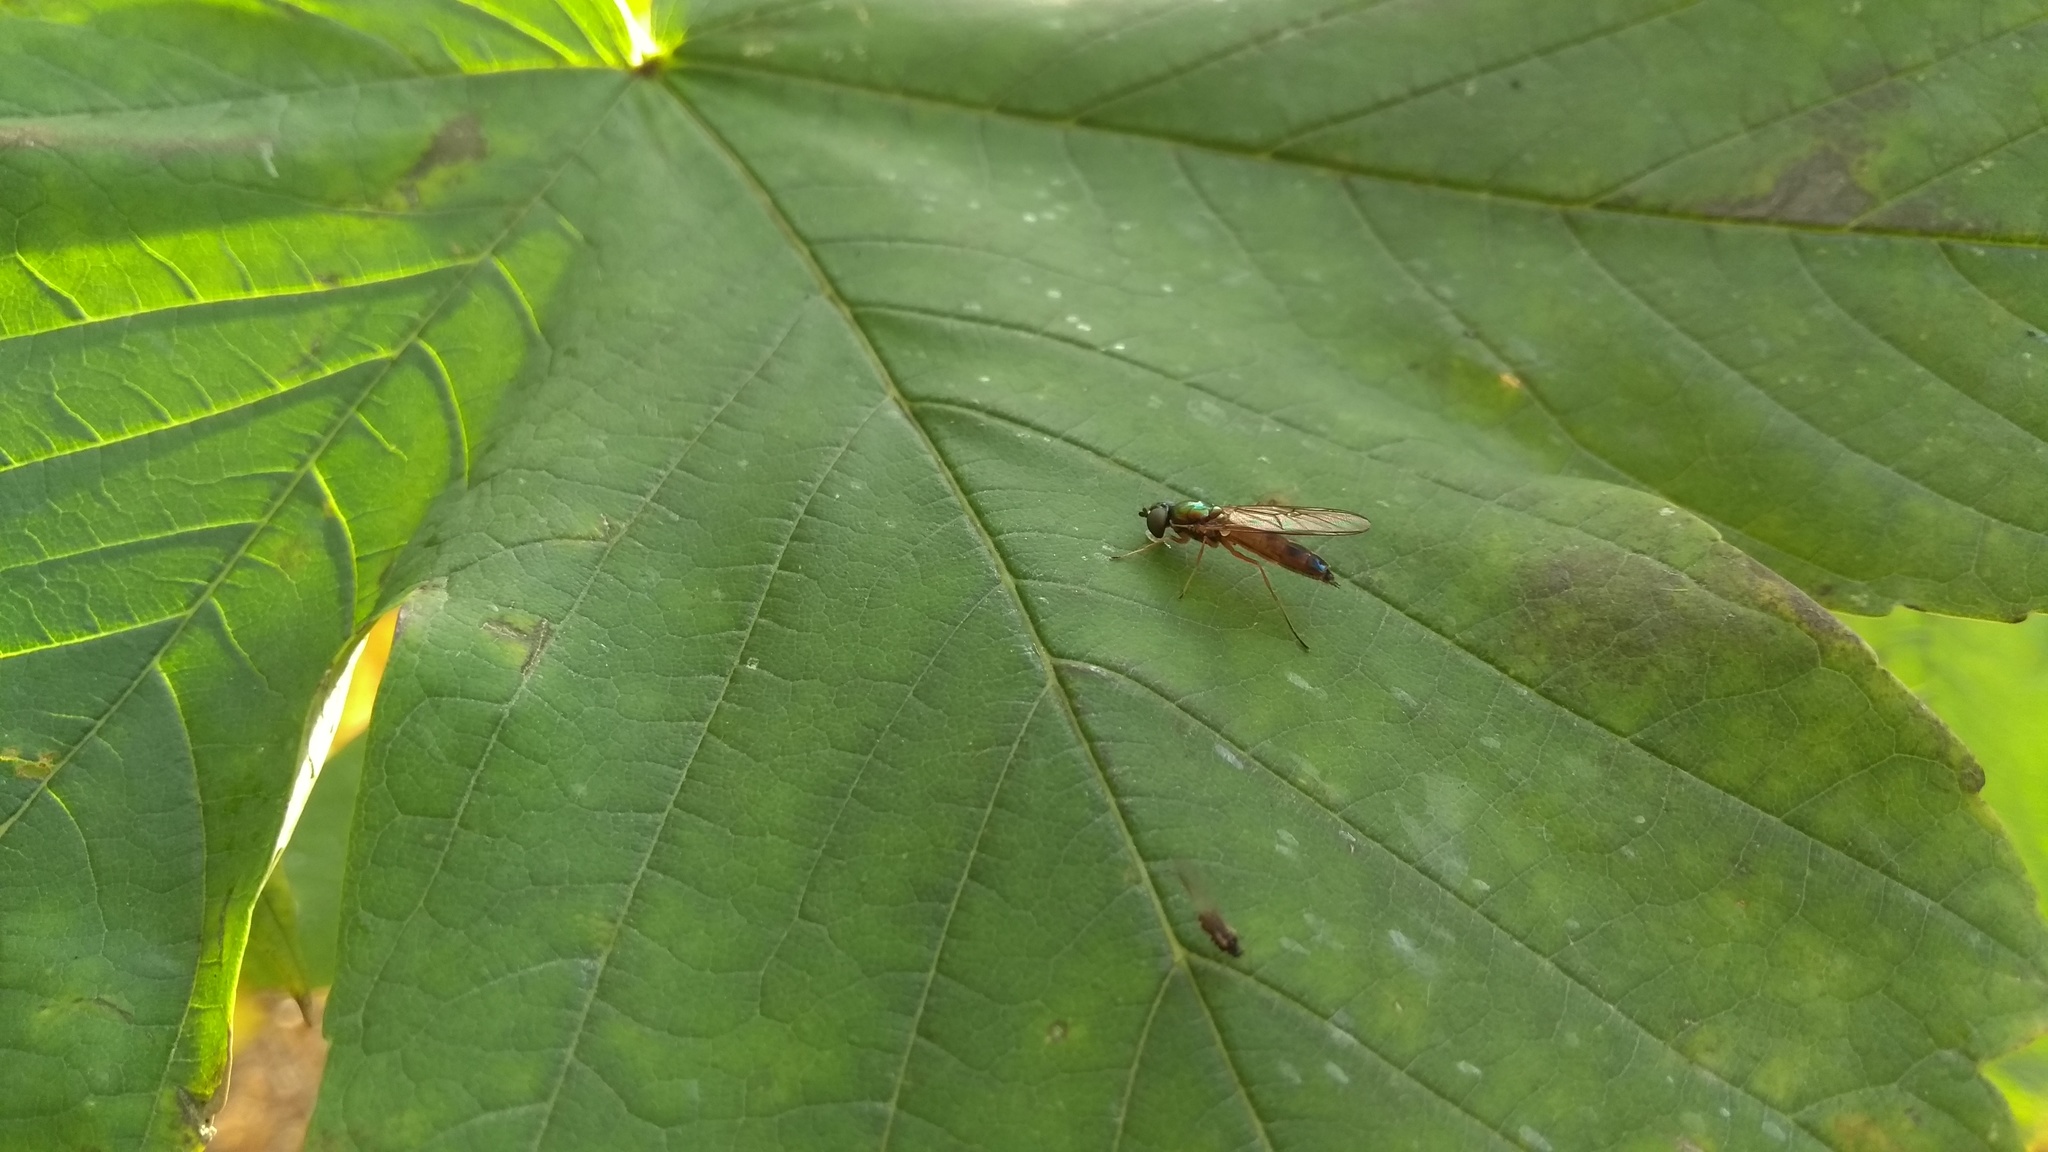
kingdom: Animalia
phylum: Arthropoda
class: Insecta
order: Diptera
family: Stratiomyidae
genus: Sargus
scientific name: Sargus bipunctatus
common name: Twin-spot centurion
